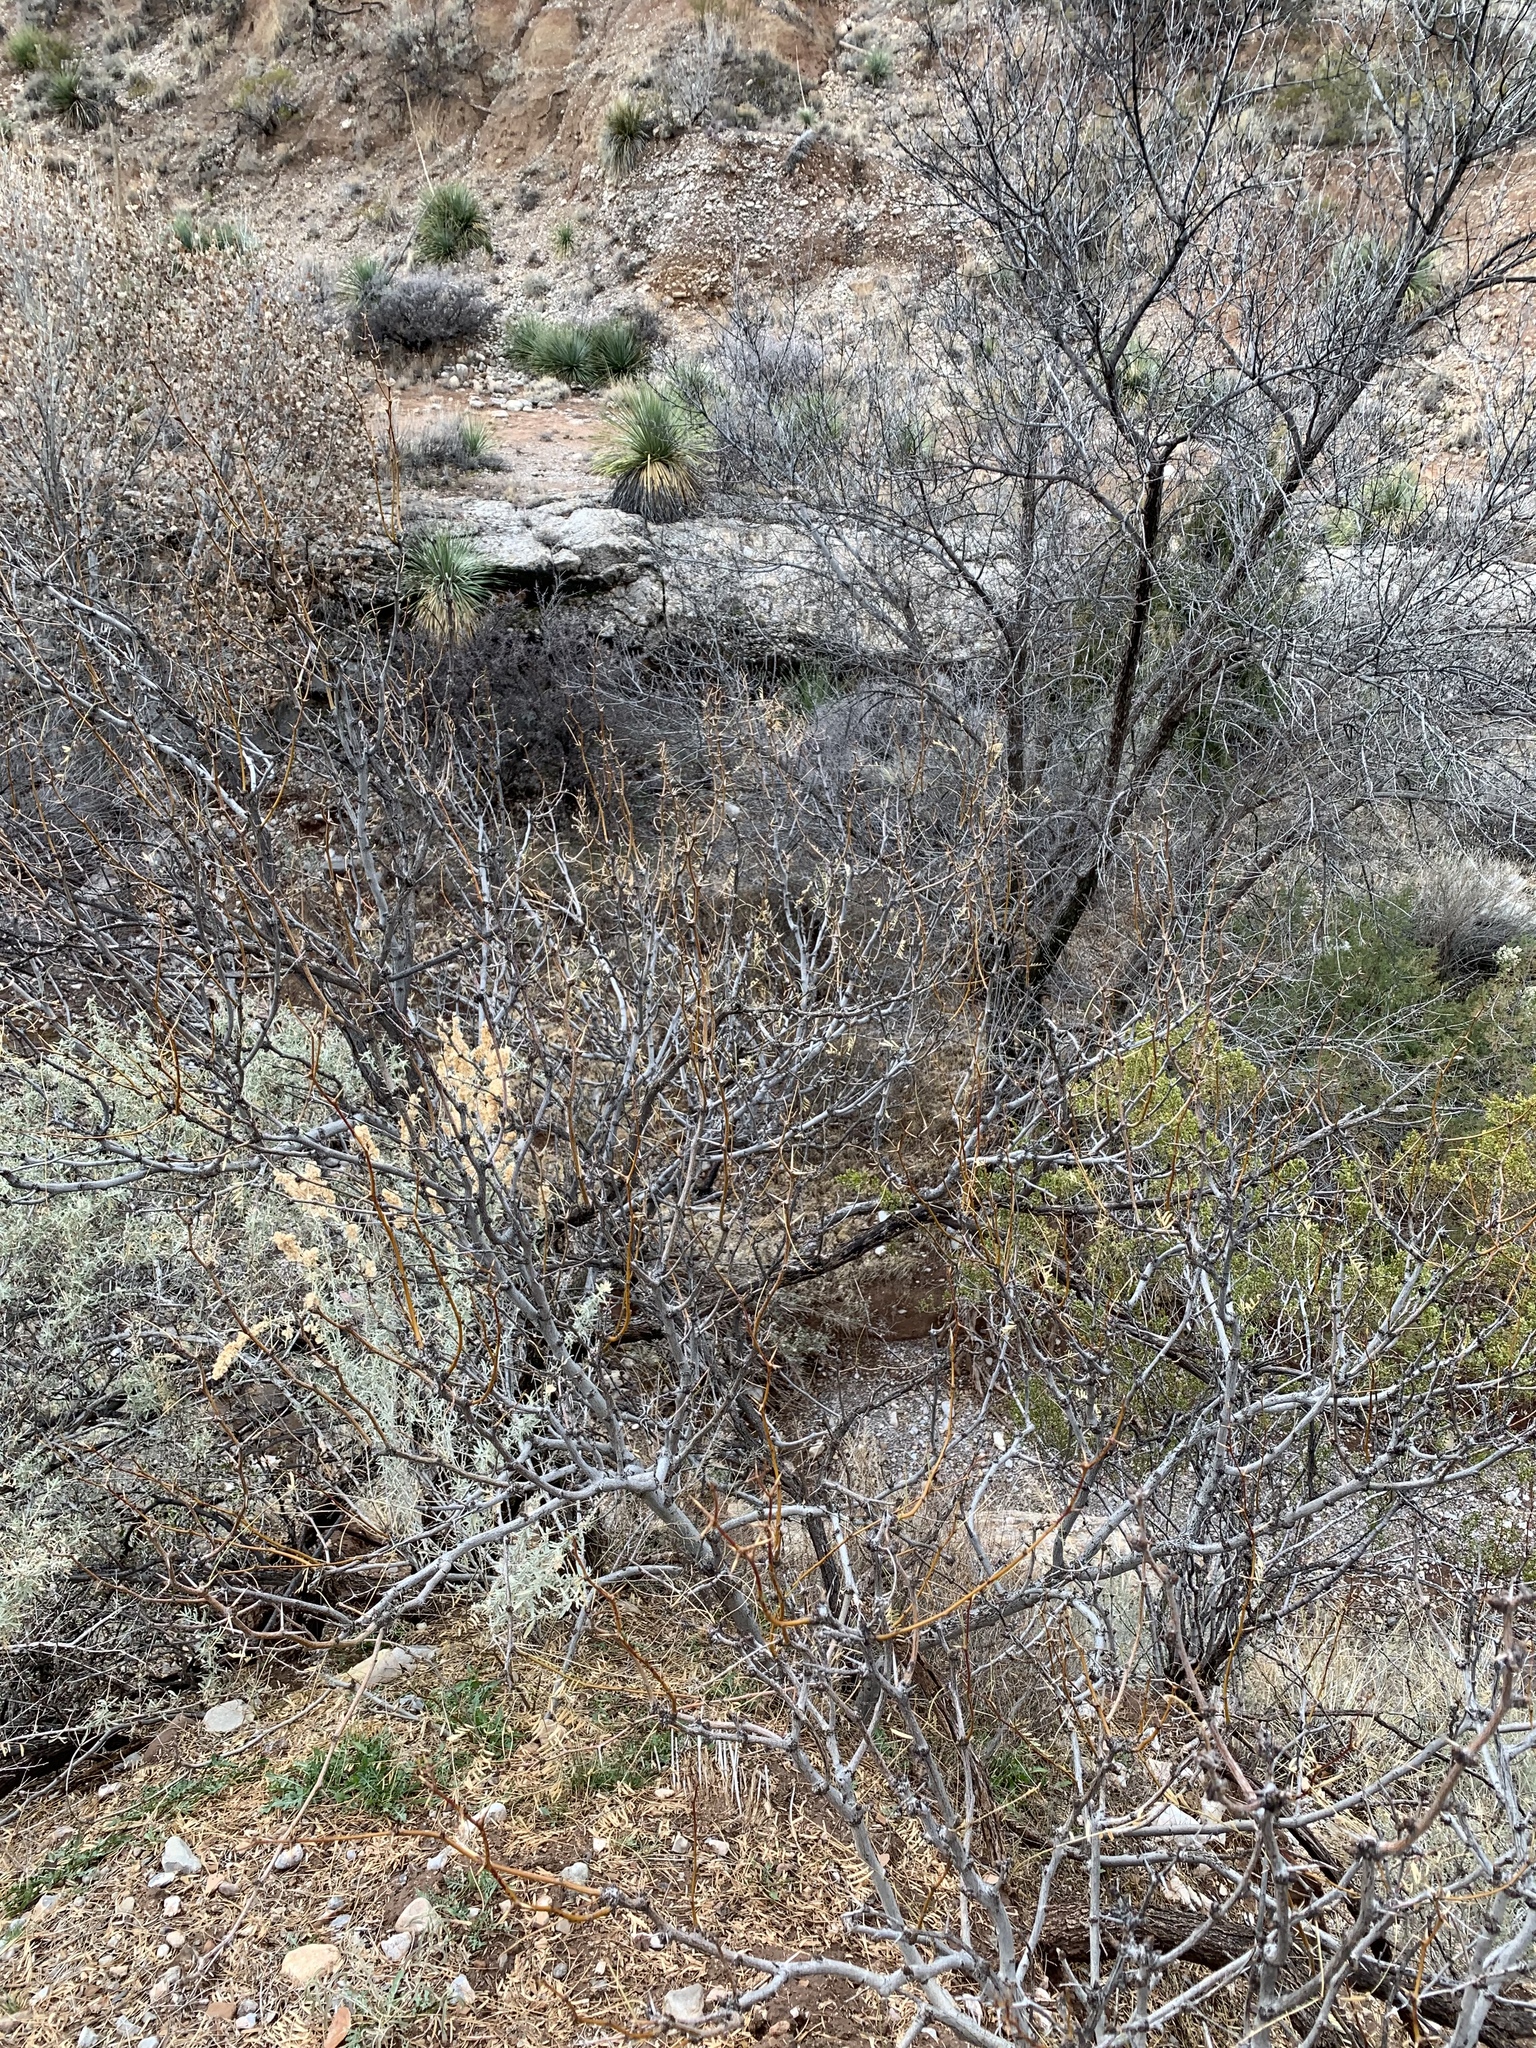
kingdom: Plantae
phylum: Tracheophyta
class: Magnoliopsida
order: Fabales
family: Fabaceae
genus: Prosopis
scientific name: Prosopis glandulosa
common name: Honey mesquite
